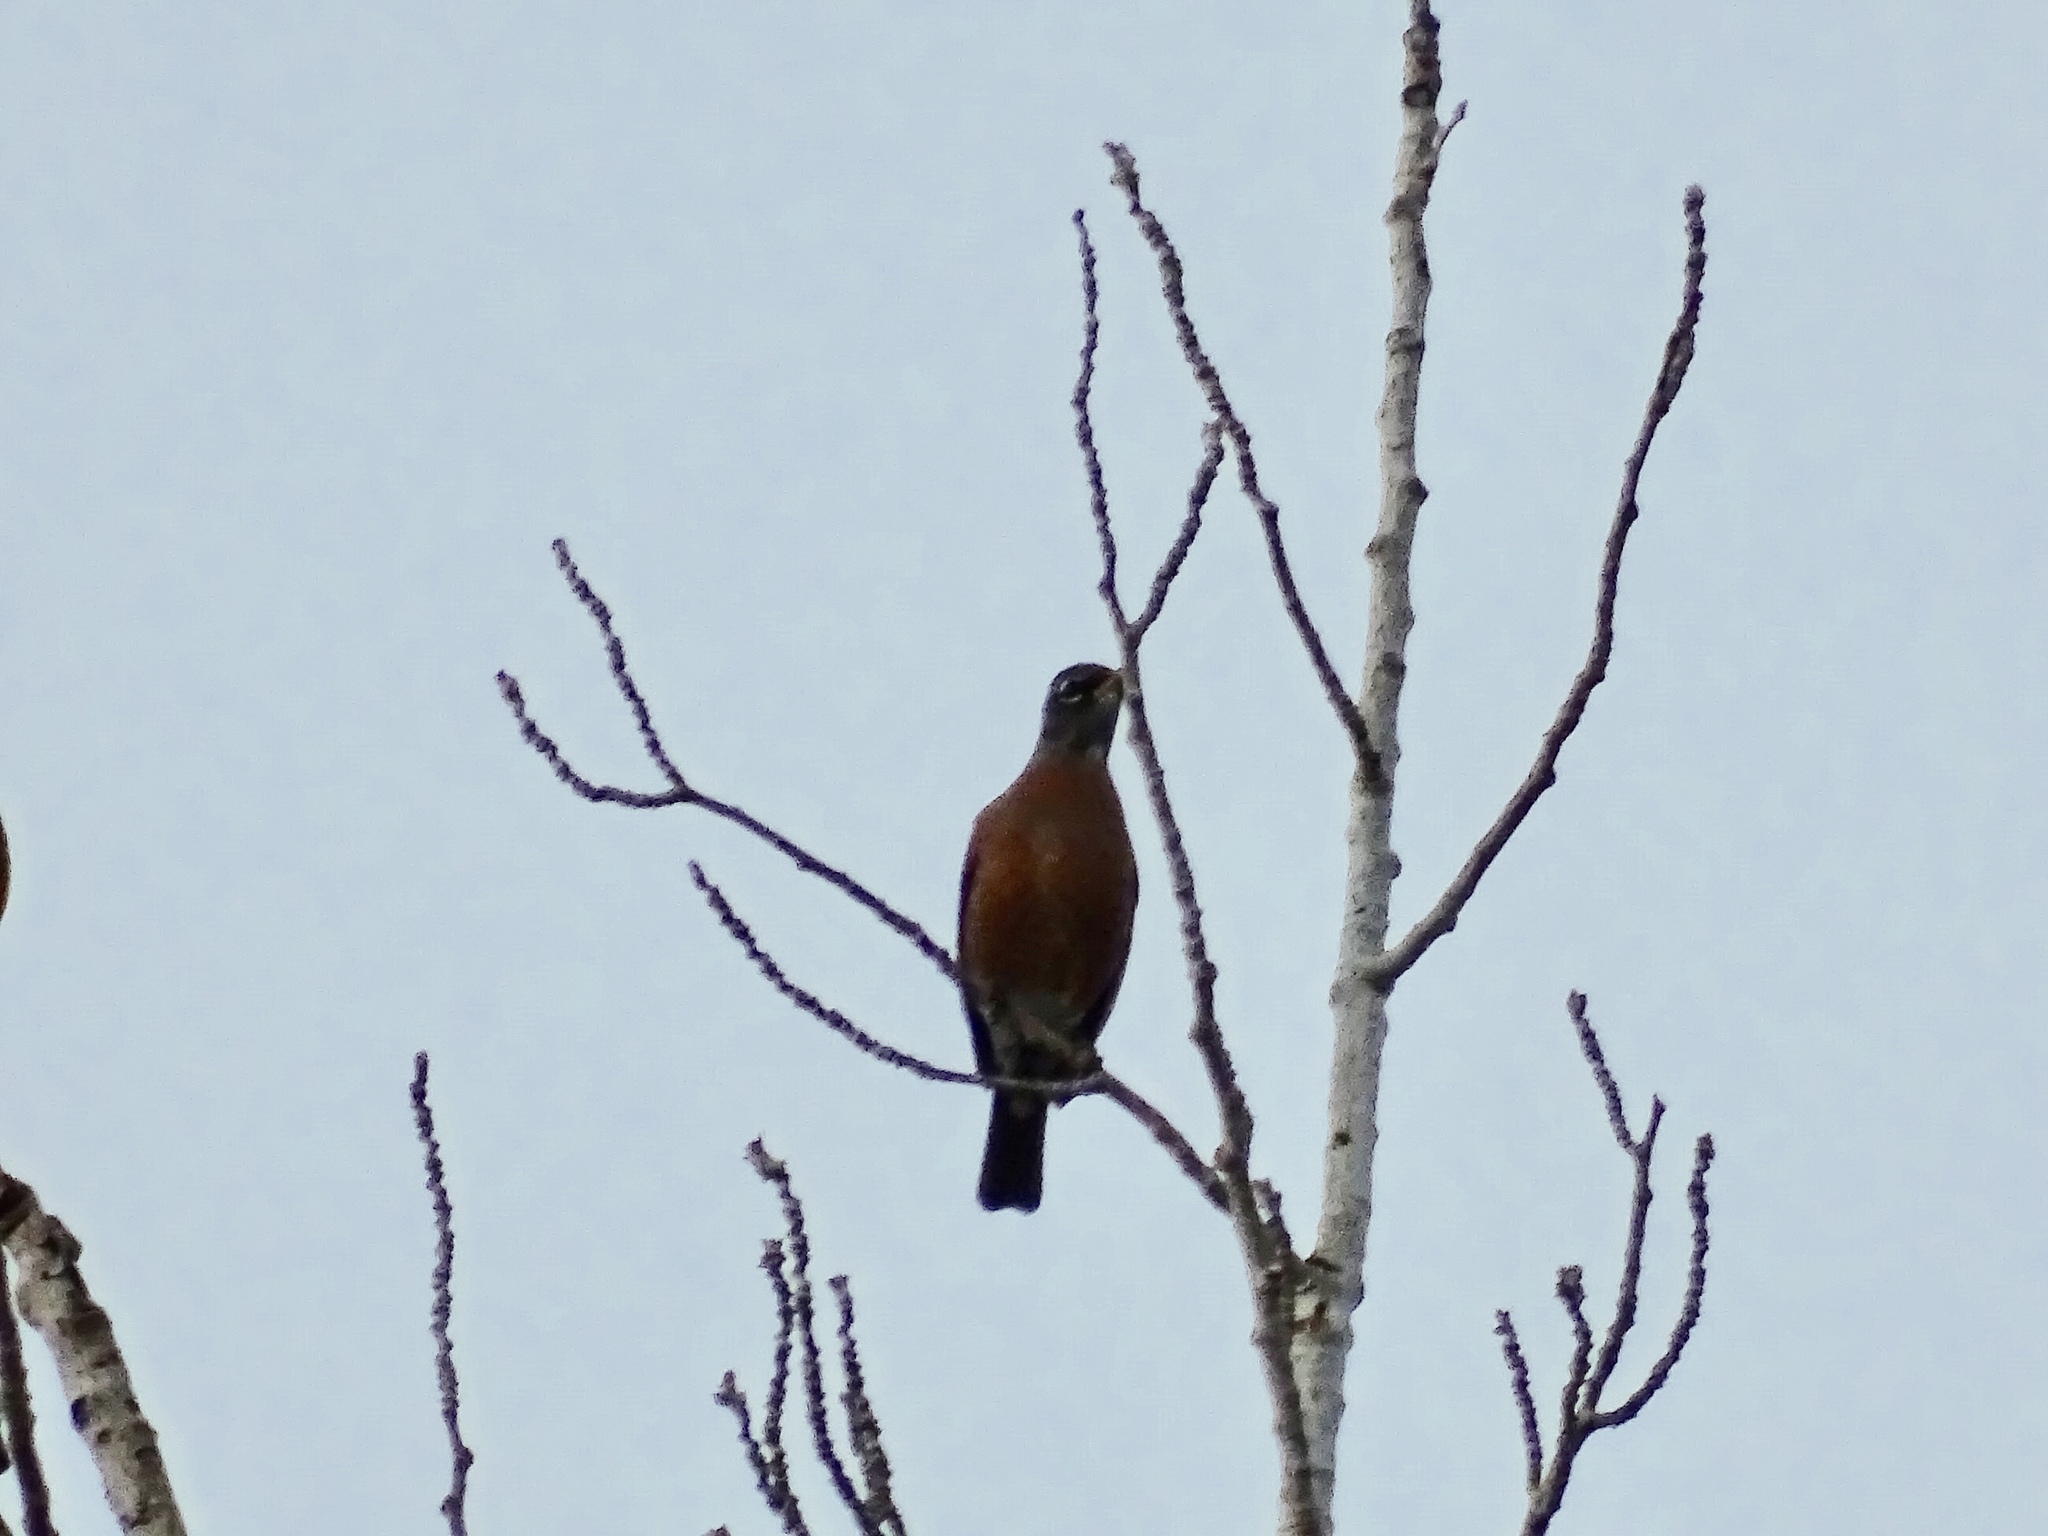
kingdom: Animalia
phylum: Chordata
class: Aves
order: Passeriformes
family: Turdidae
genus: Turdus
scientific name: Turdus migratorius
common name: American robin
